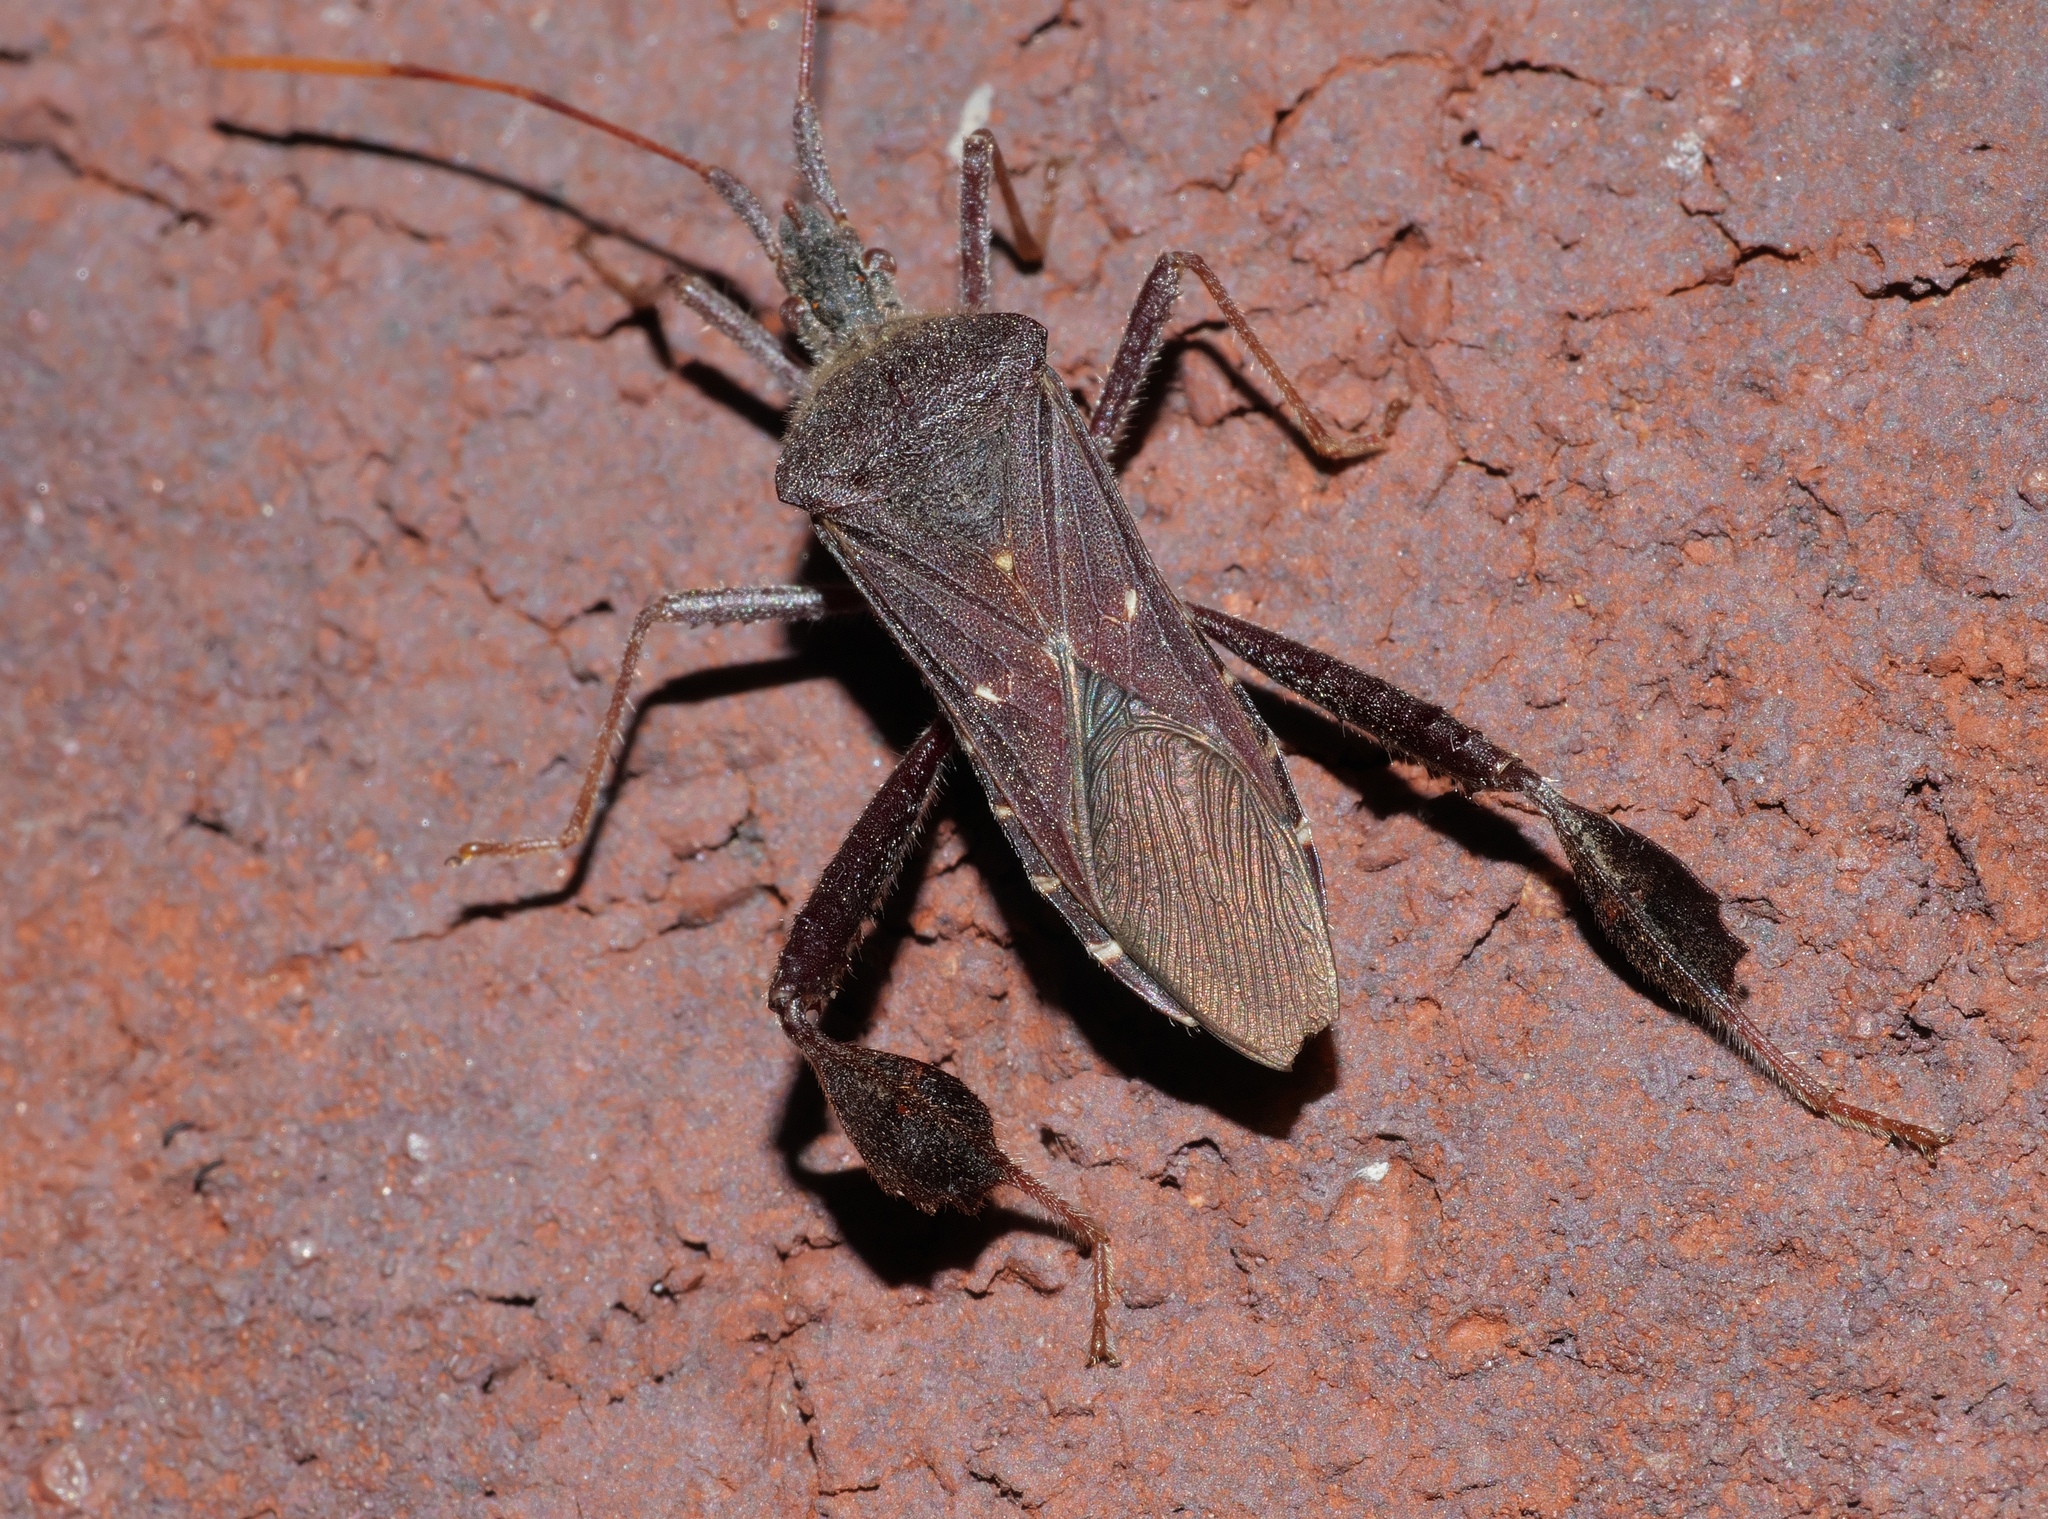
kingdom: Animalia
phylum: Arthropoda
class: Insecta
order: Hemiptera
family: Coreidae
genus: Leptoglossus
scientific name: Leptoglossus oppositus
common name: Northern leaf-footed bug
